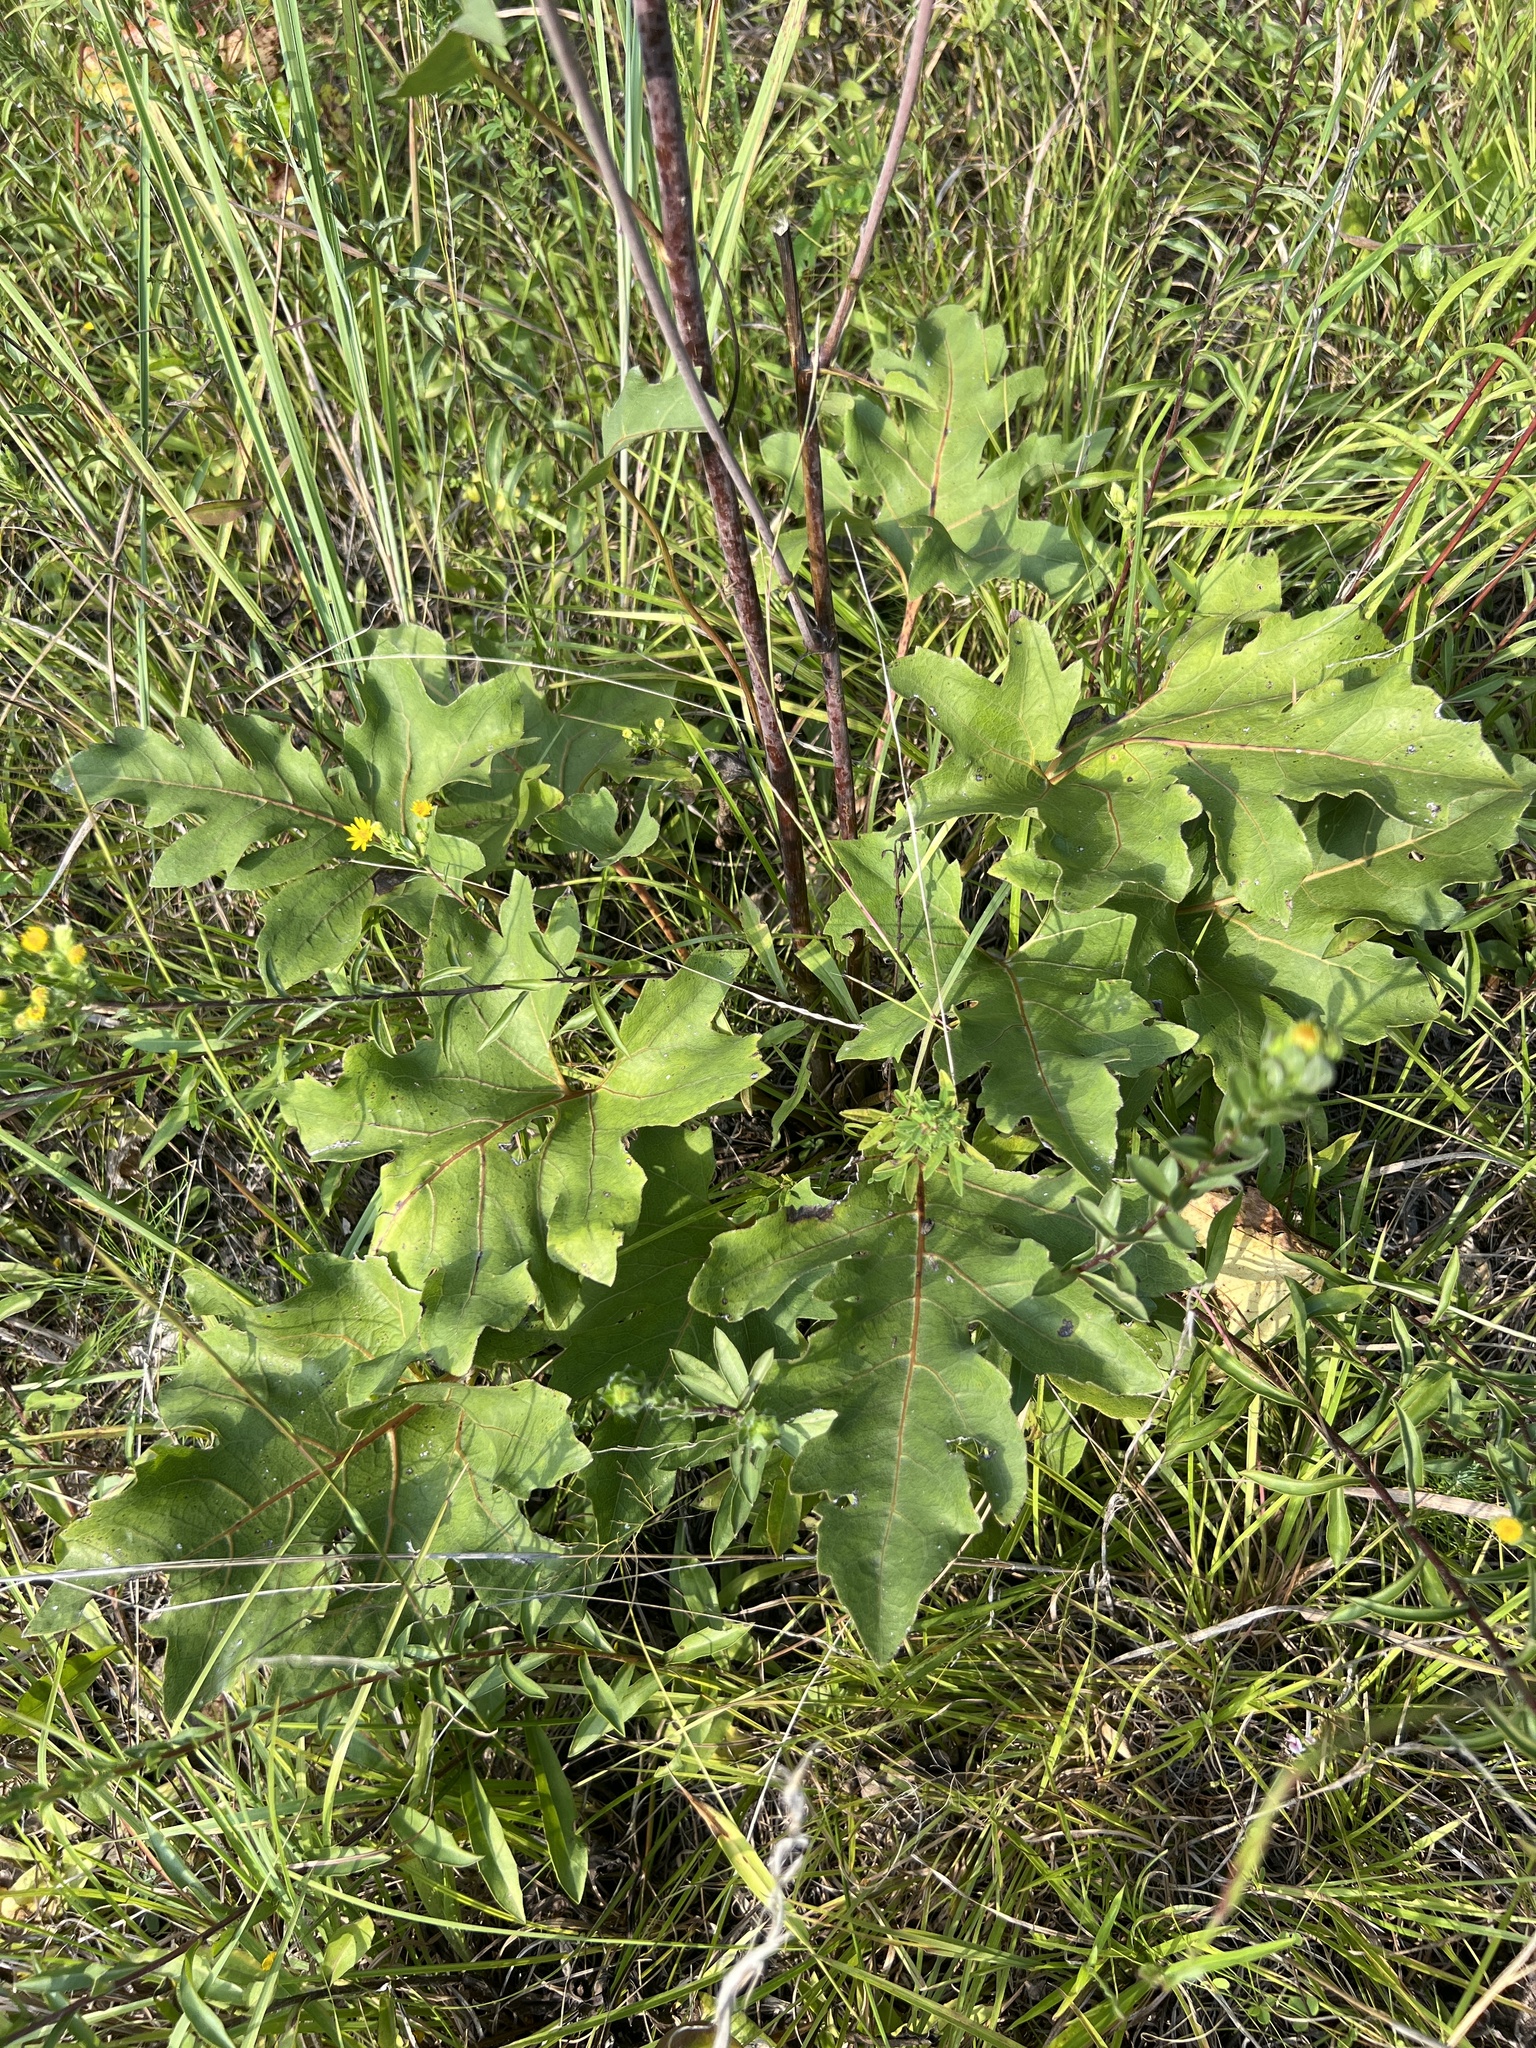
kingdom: Plantae
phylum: Tracheophyta
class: Magnoliopsida
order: Asterales
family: Asteraceae
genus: Silphium
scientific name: Silphium compositum
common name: Lesser basal-leaf rosinweed
